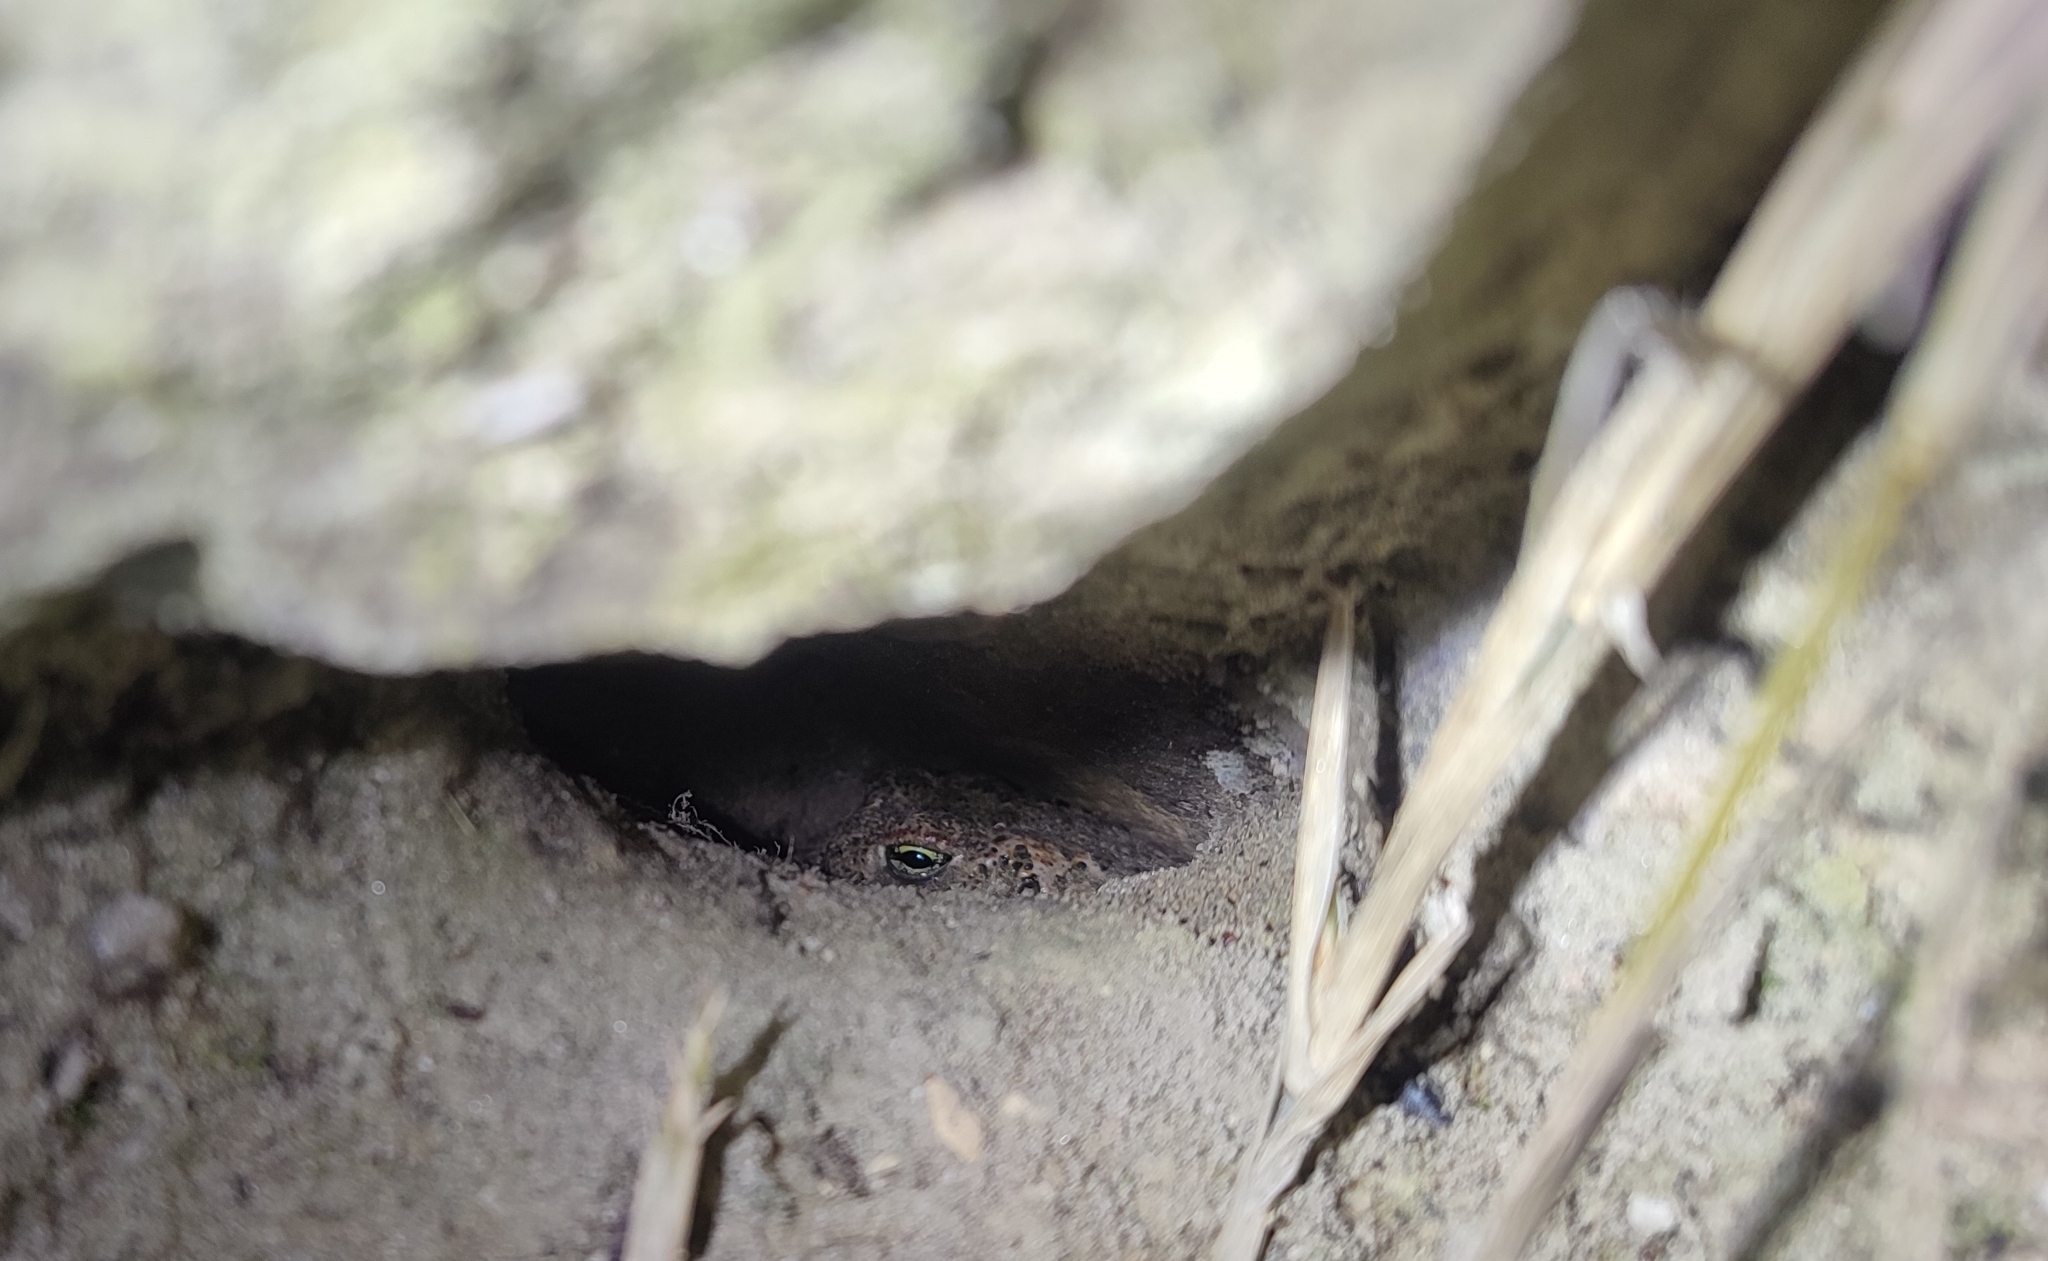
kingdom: Animalia
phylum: Chordata
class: Amphibia
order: Anura
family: Bufonidae
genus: Epidalea
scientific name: Epidalea calamita
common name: Natterjack toad
